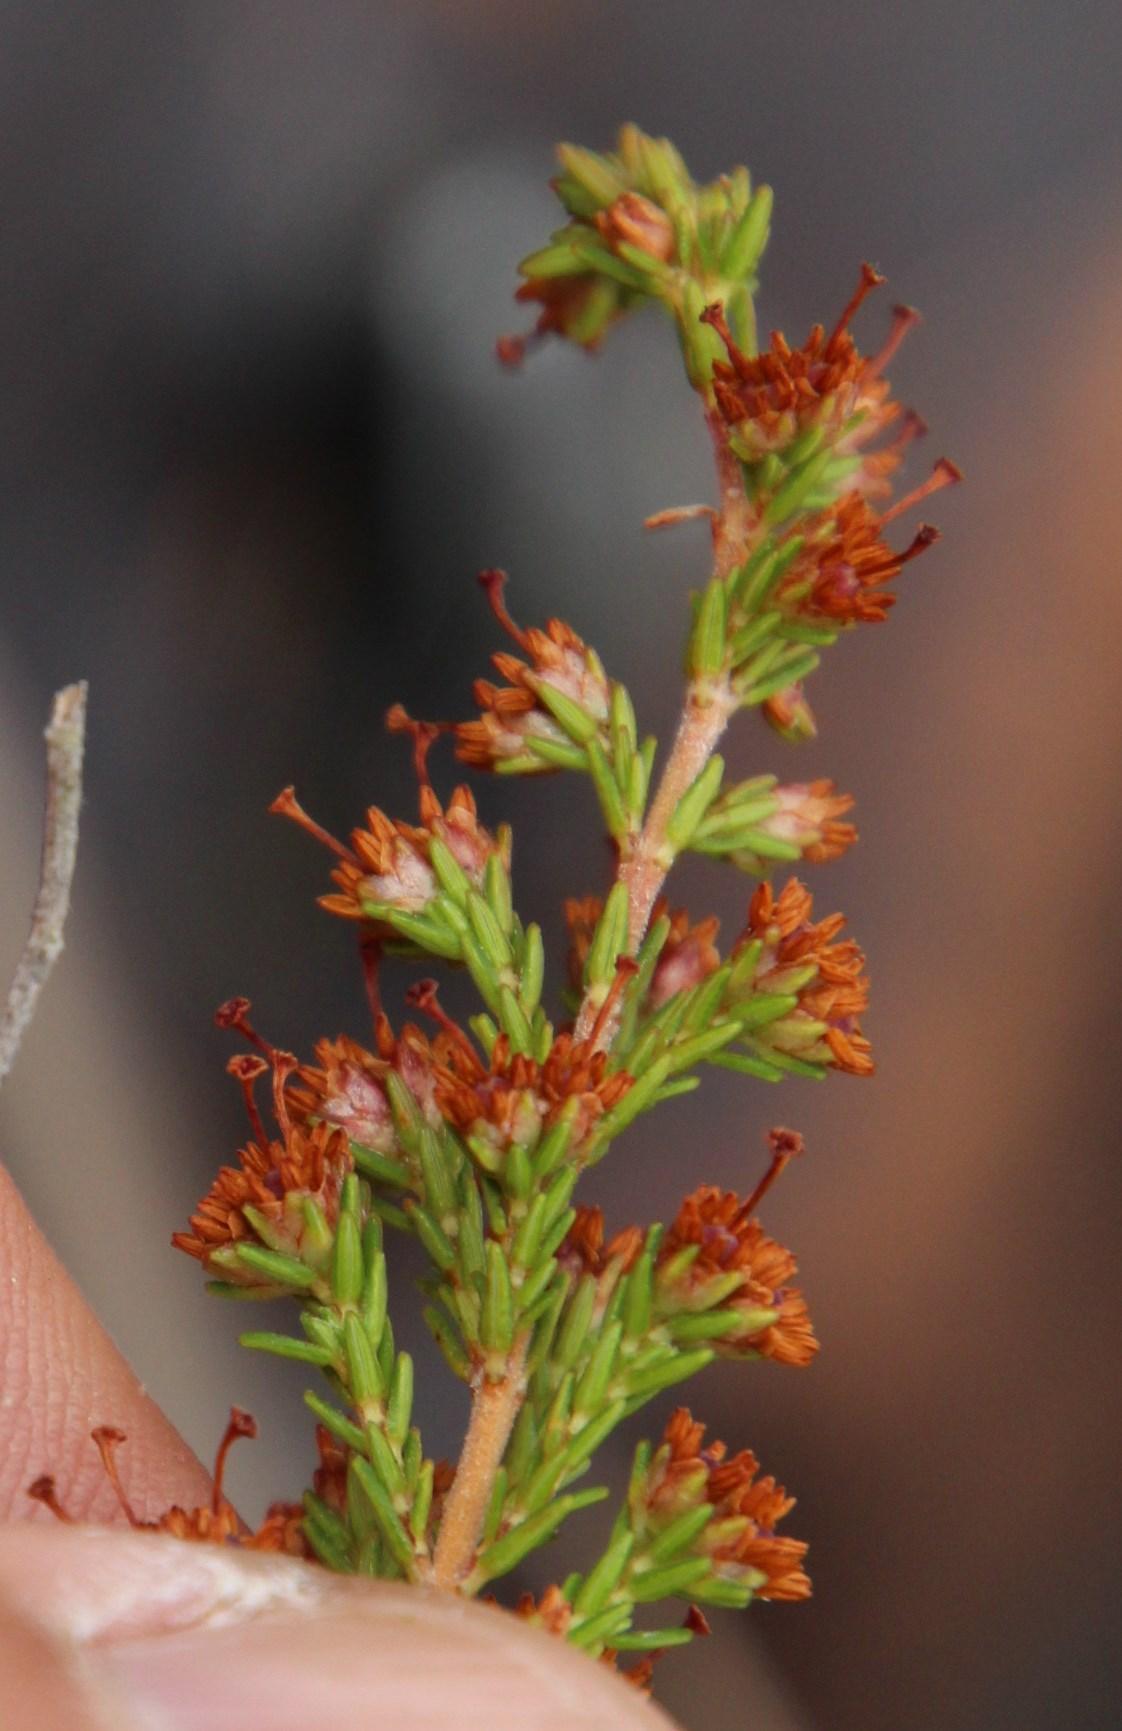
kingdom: Plantae
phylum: Tracheophyta
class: Magnoliopsida
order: Ericales
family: Ericaceae
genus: Erica
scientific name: Erica lasciva
